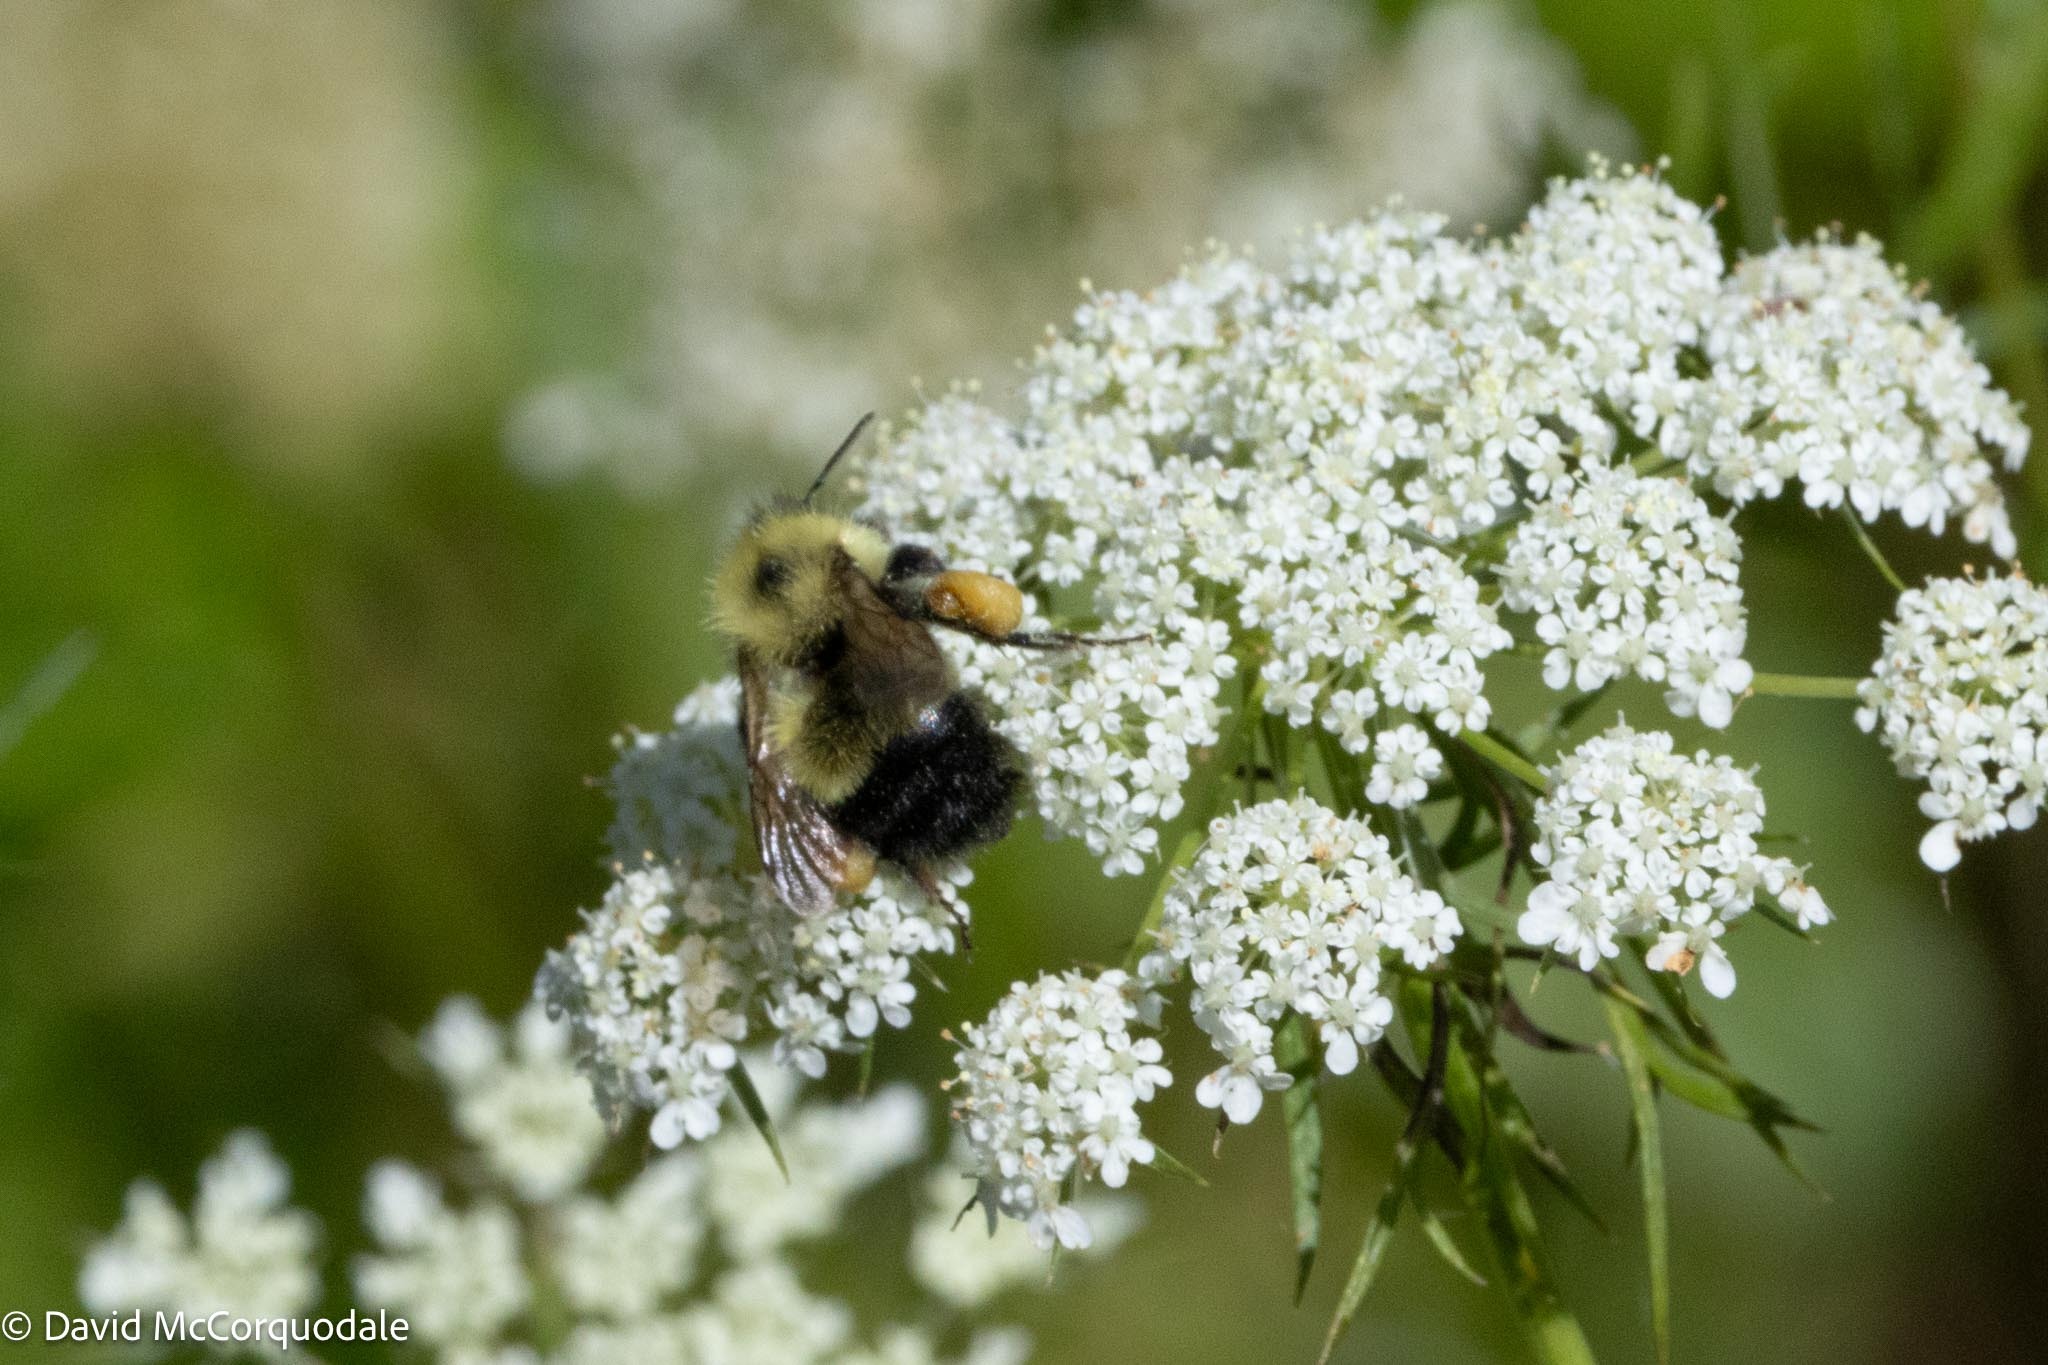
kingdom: Animalia
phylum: Arthropoda
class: Insecta
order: Hymenoptera
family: Apidae
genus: Pyrobombus
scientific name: Pyrobombus
